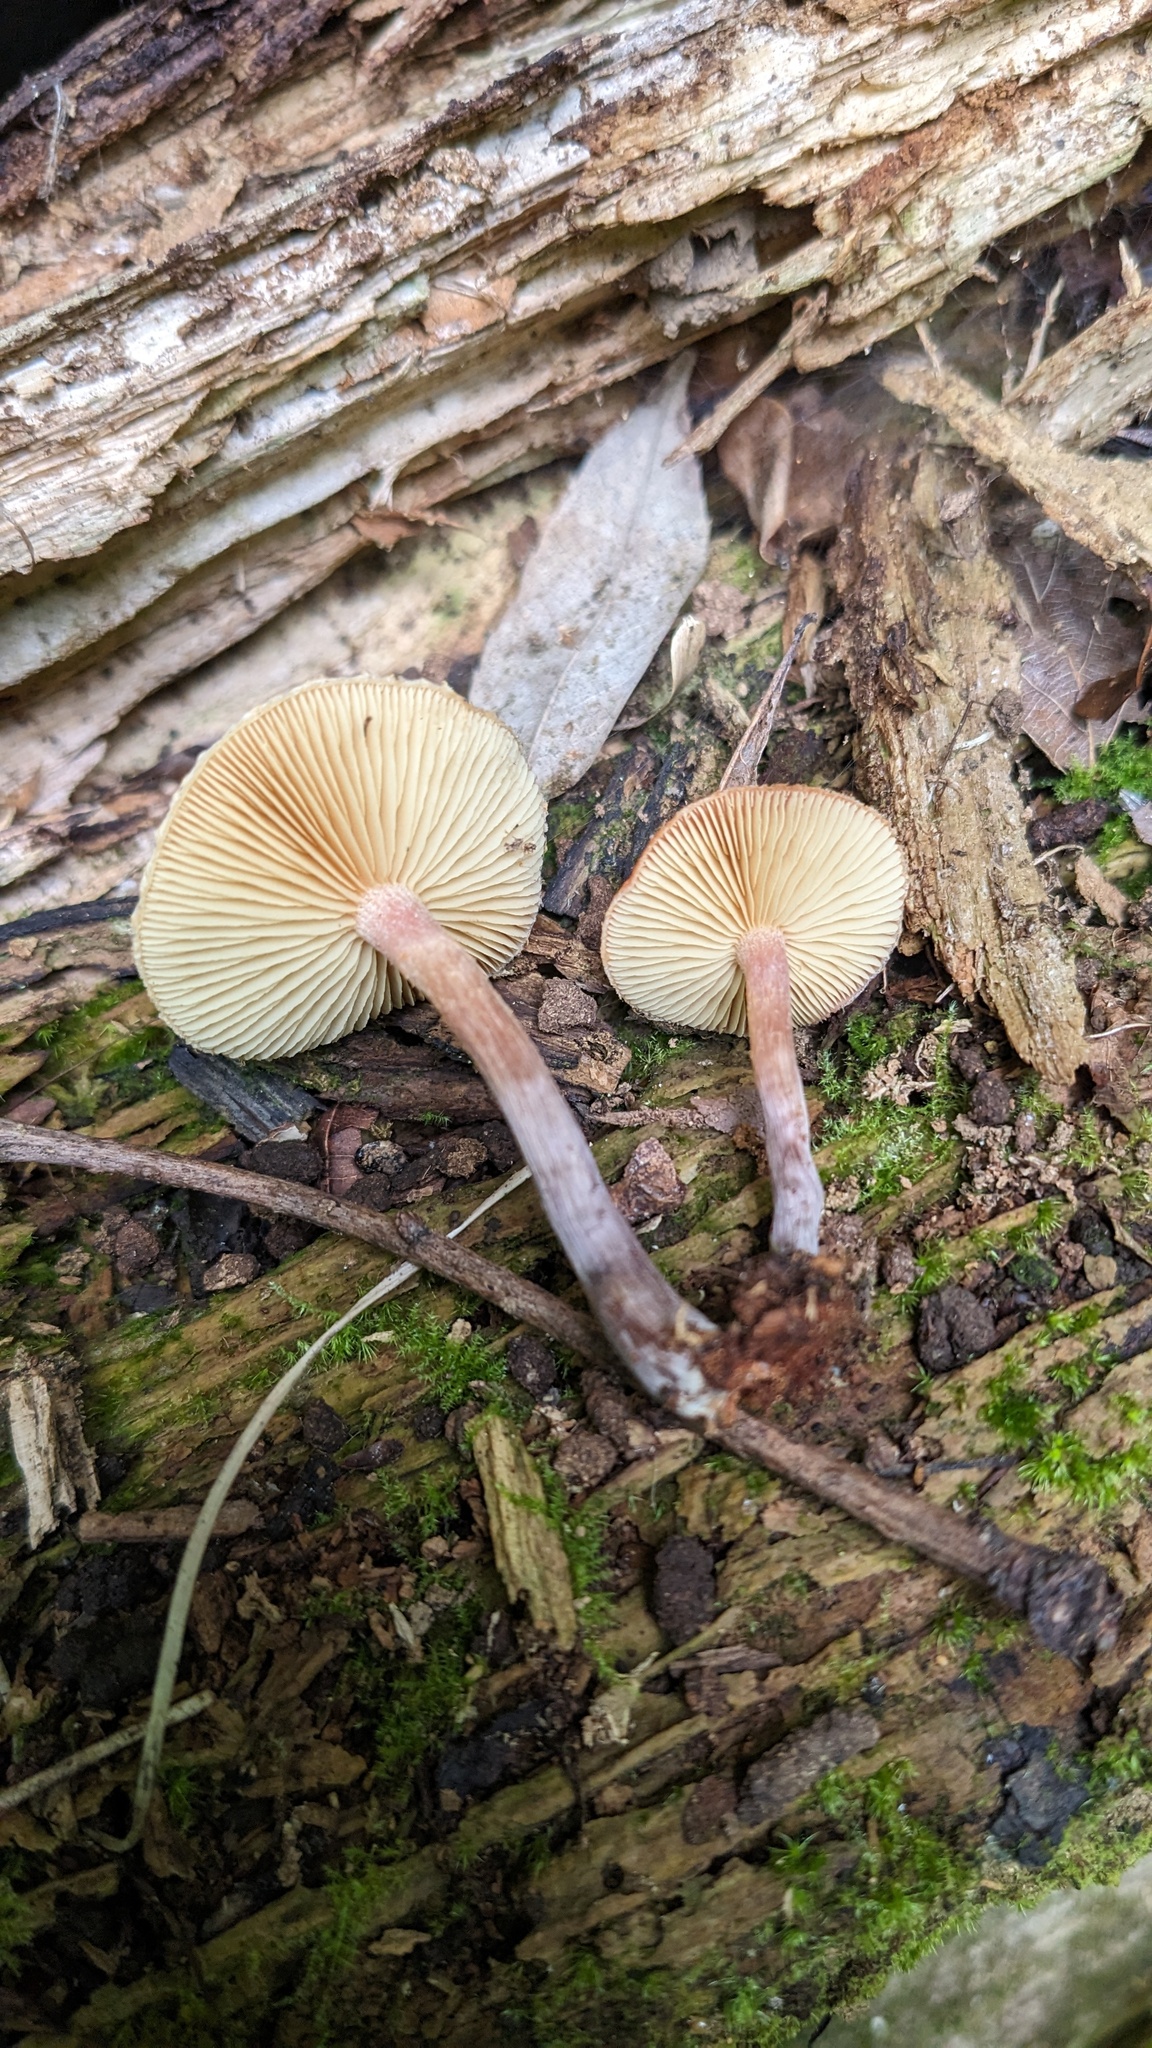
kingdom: Fungi
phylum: Basidiomycota
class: Agaricomycetes
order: Agaricales
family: Hymenogastraceae
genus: Gymnopilus
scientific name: Gymnopilus luteofolius
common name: Yellow-gilled gymnopilus
